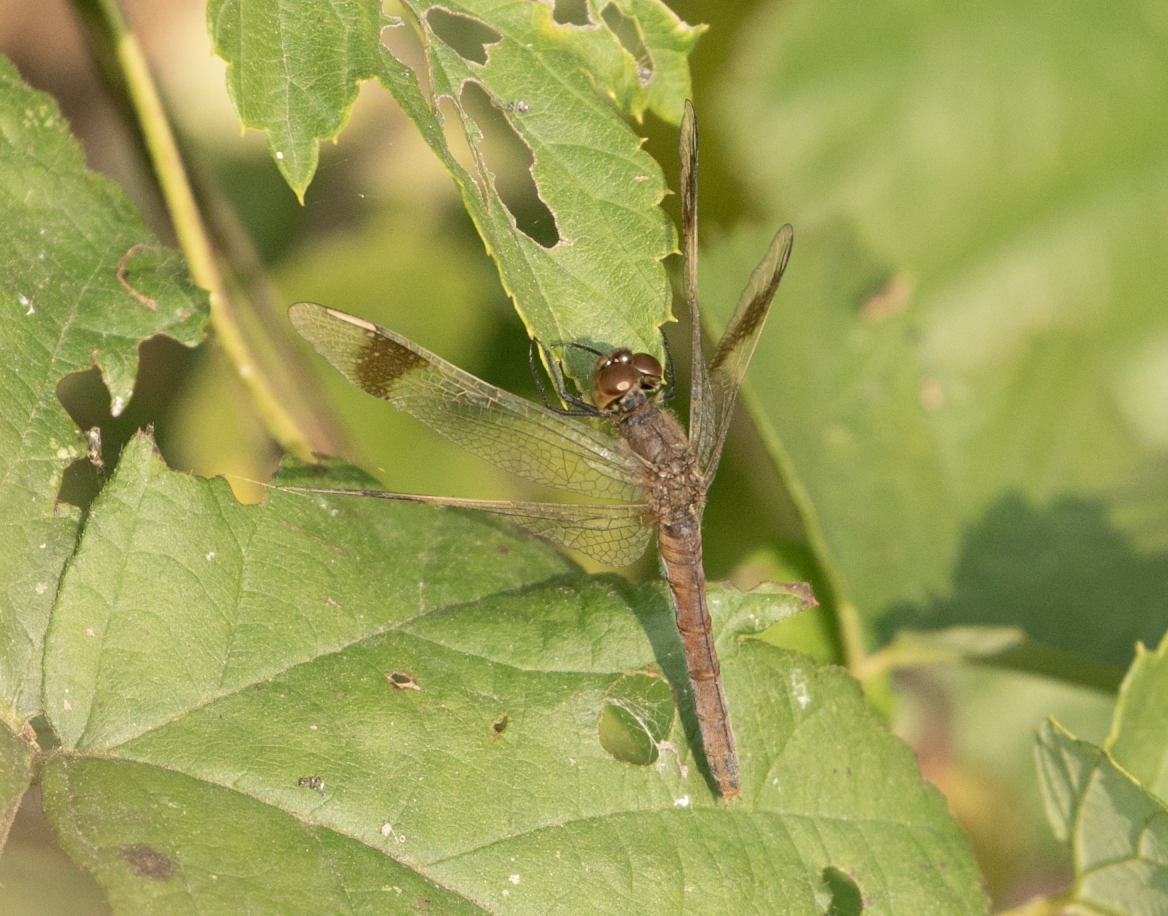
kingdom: Animalia
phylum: Arthropoda
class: Insecta
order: Odonata
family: Libellulidae
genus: Sympetrum
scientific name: Sympetrum pedemontanum
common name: Banded darter
